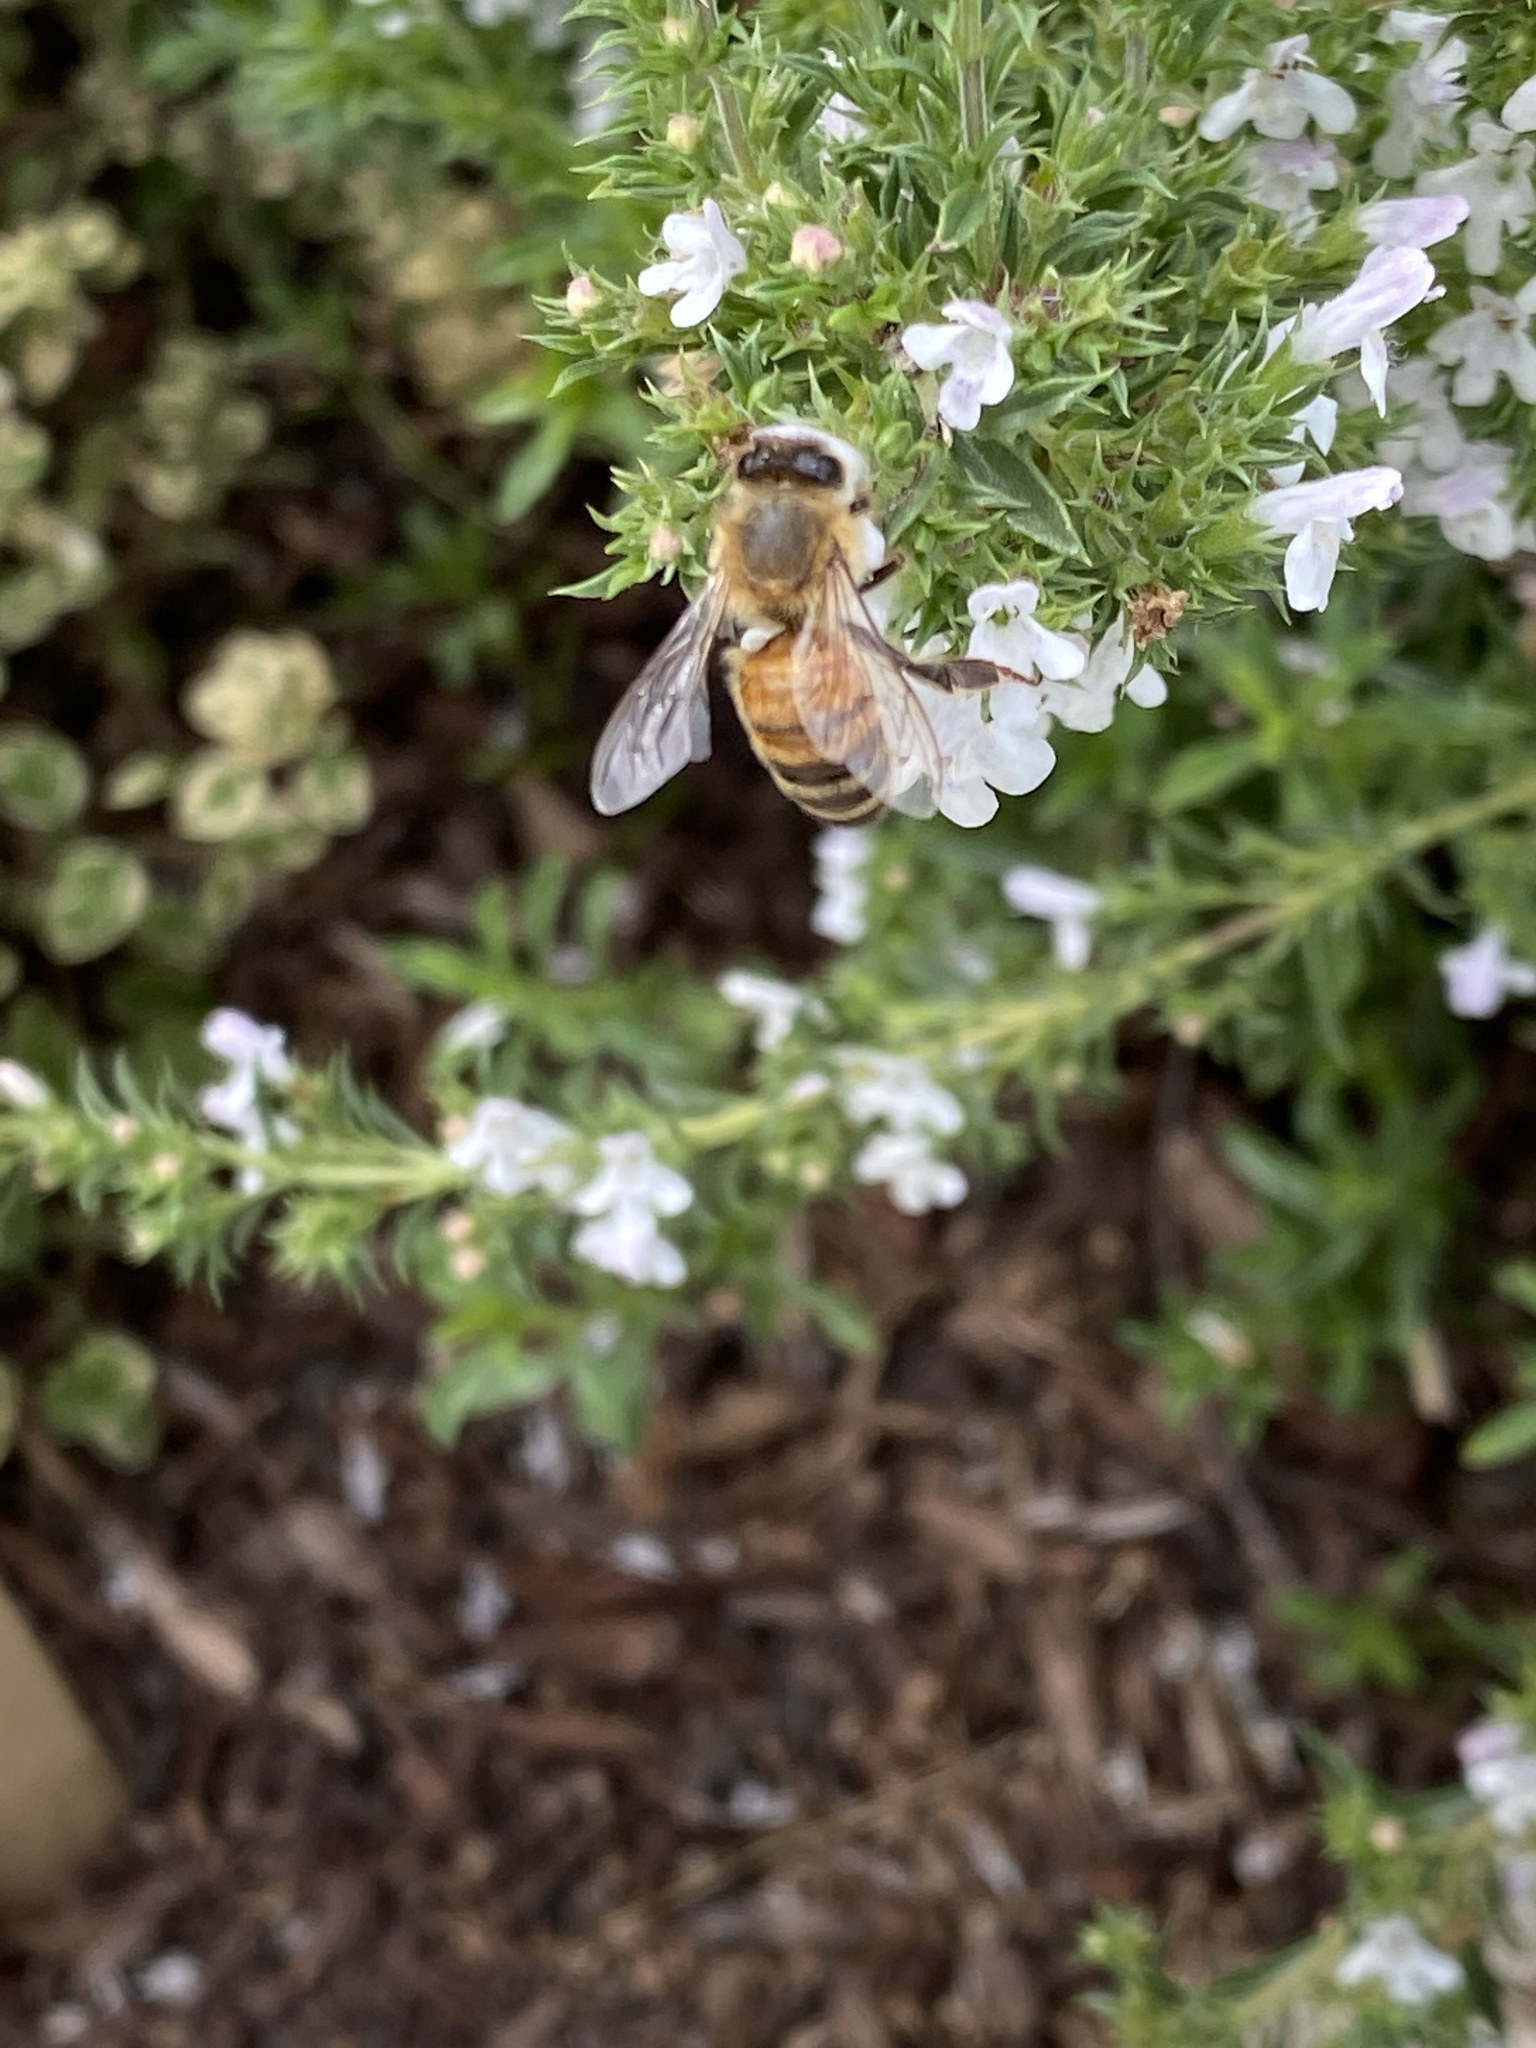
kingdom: Animalia
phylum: Arthropoda
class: Insecta
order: Hymenoptera
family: Apidae
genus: Apis
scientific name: Apis mellifera
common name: Honey bee
